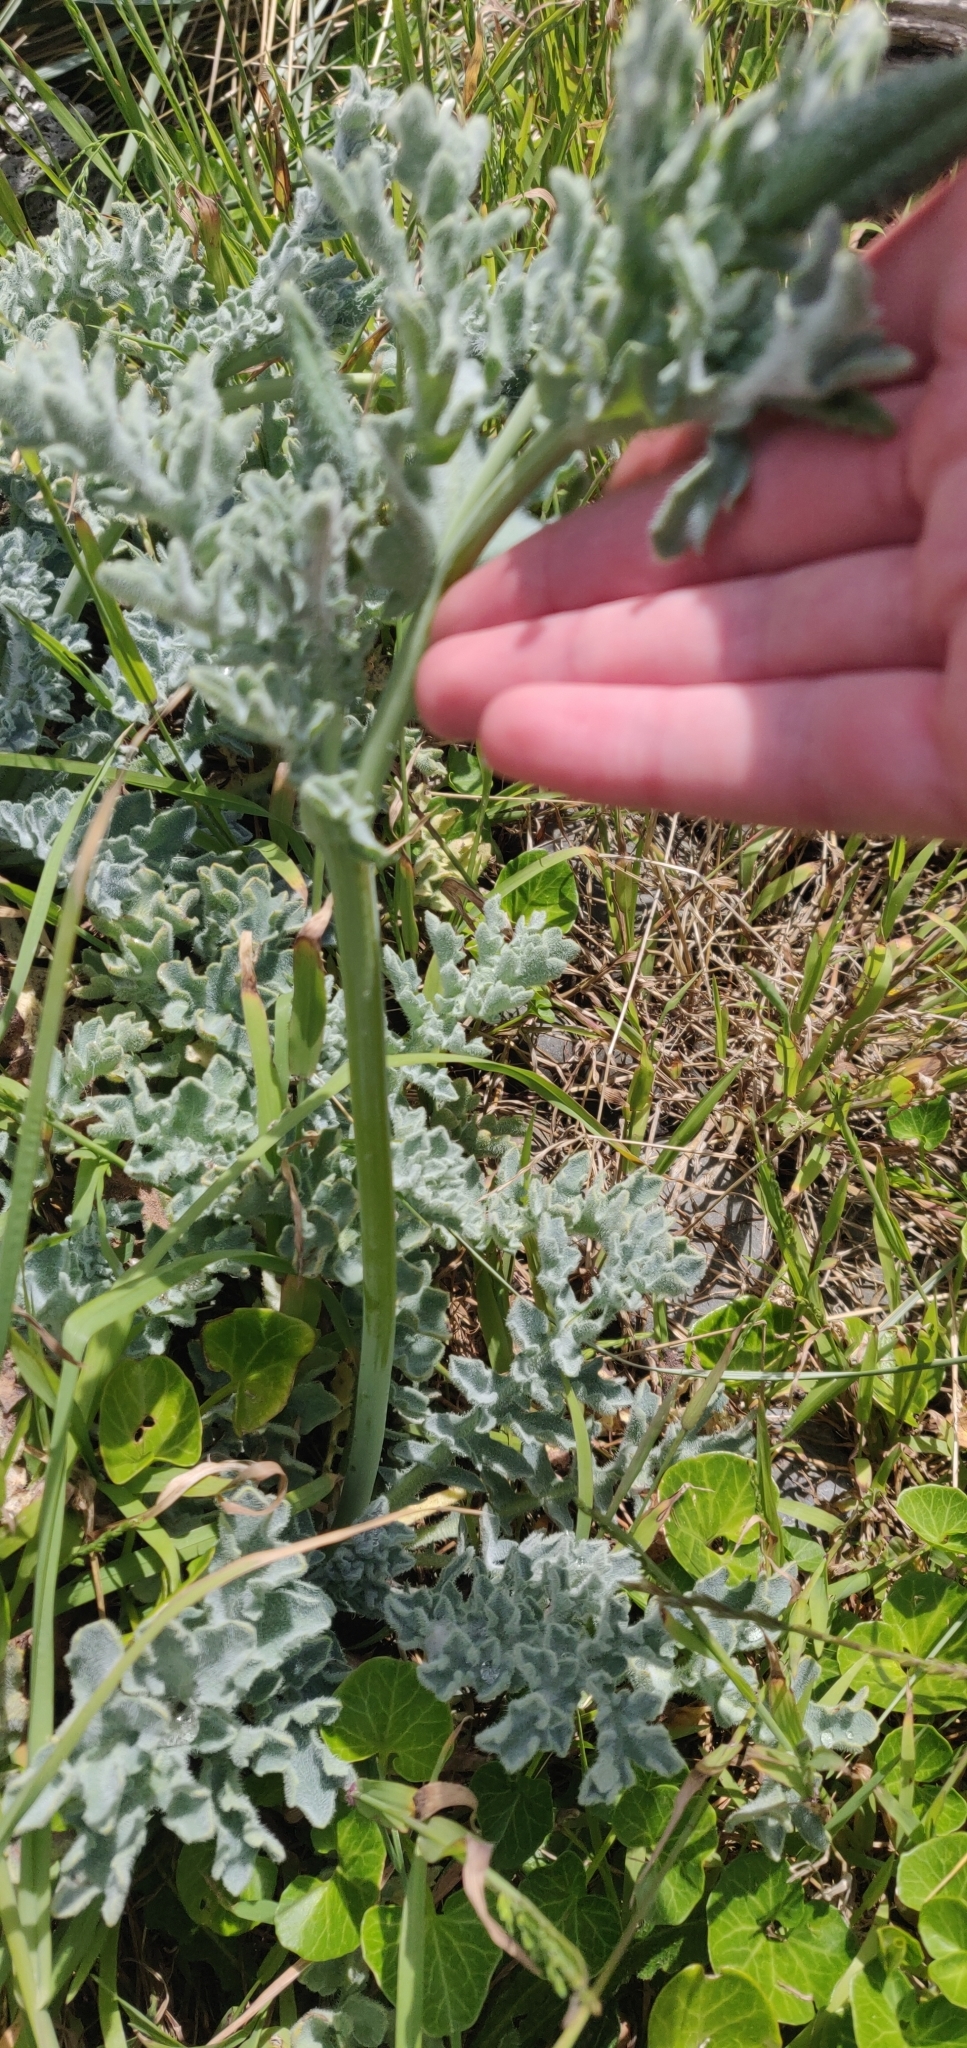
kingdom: Plantae
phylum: Tracheophyta
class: Magnoliopsida
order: Ranunculales
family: Papaveraceae
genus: Glaucium
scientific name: Glaucium flavum
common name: Yellow horned-poppy
